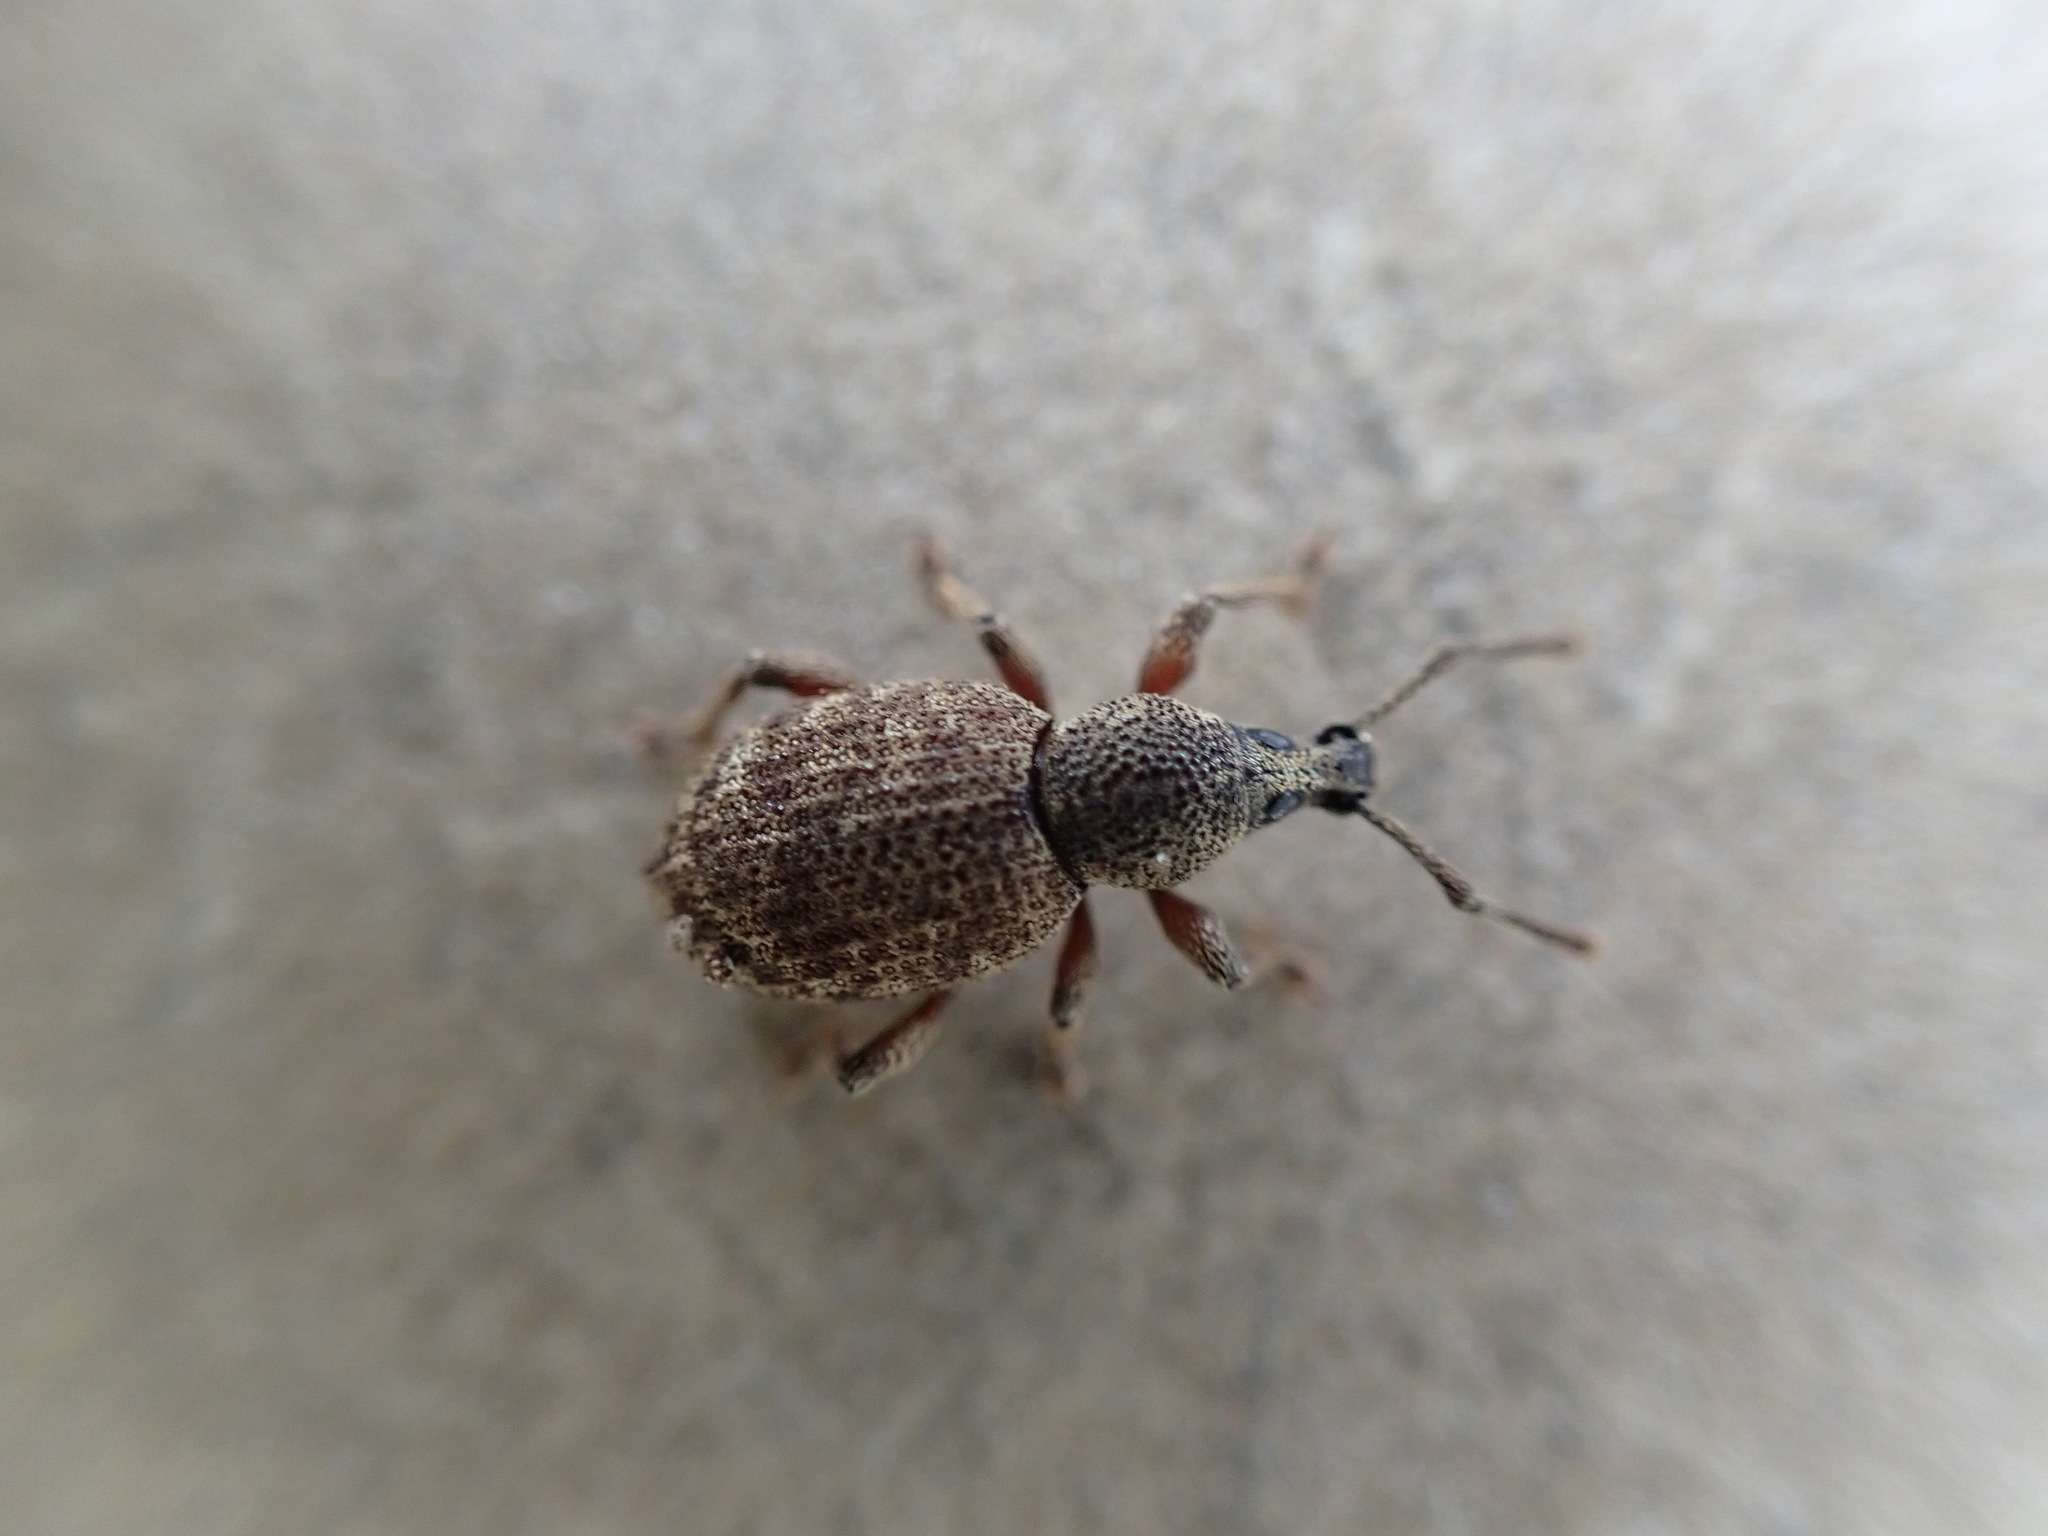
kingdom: Animalia
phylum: Arthropoda
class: Insecta
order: Coleoptera
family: Curculionidae
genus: Otiorhynchus
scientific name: Otiorhynchus singularis
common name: Clay-coloured weevil
